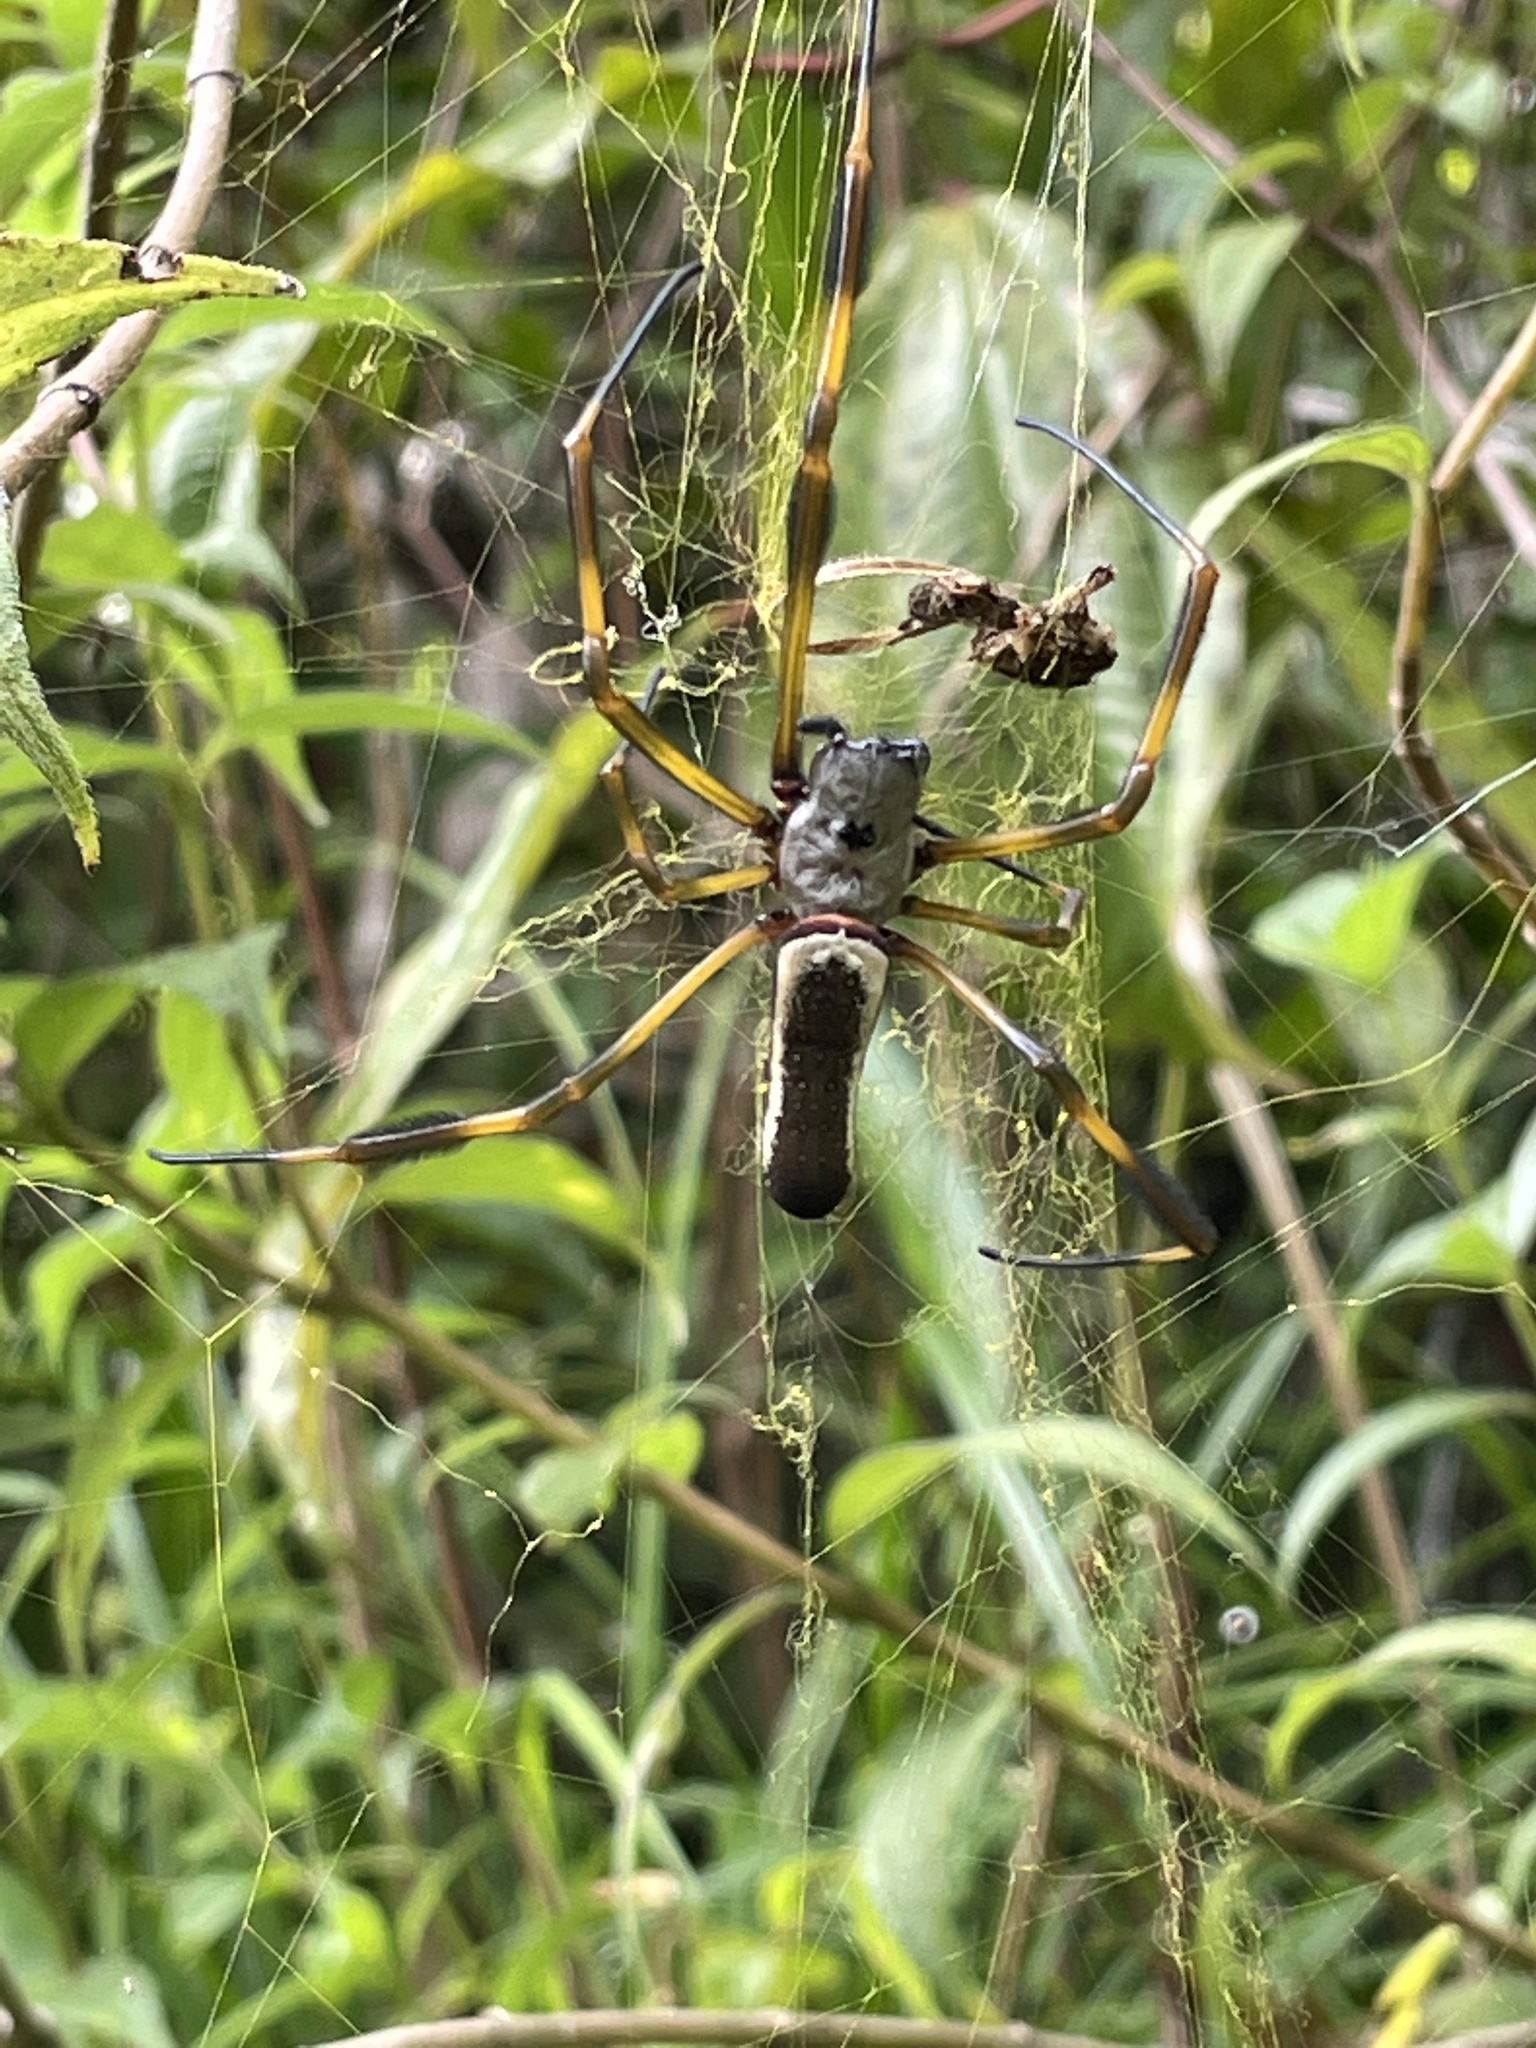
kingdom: Animalia
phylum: Arthropoda
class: Arachnida
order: Araneae
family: Araneidae
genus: Trichonephila
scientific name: Trichonephila clavipes
